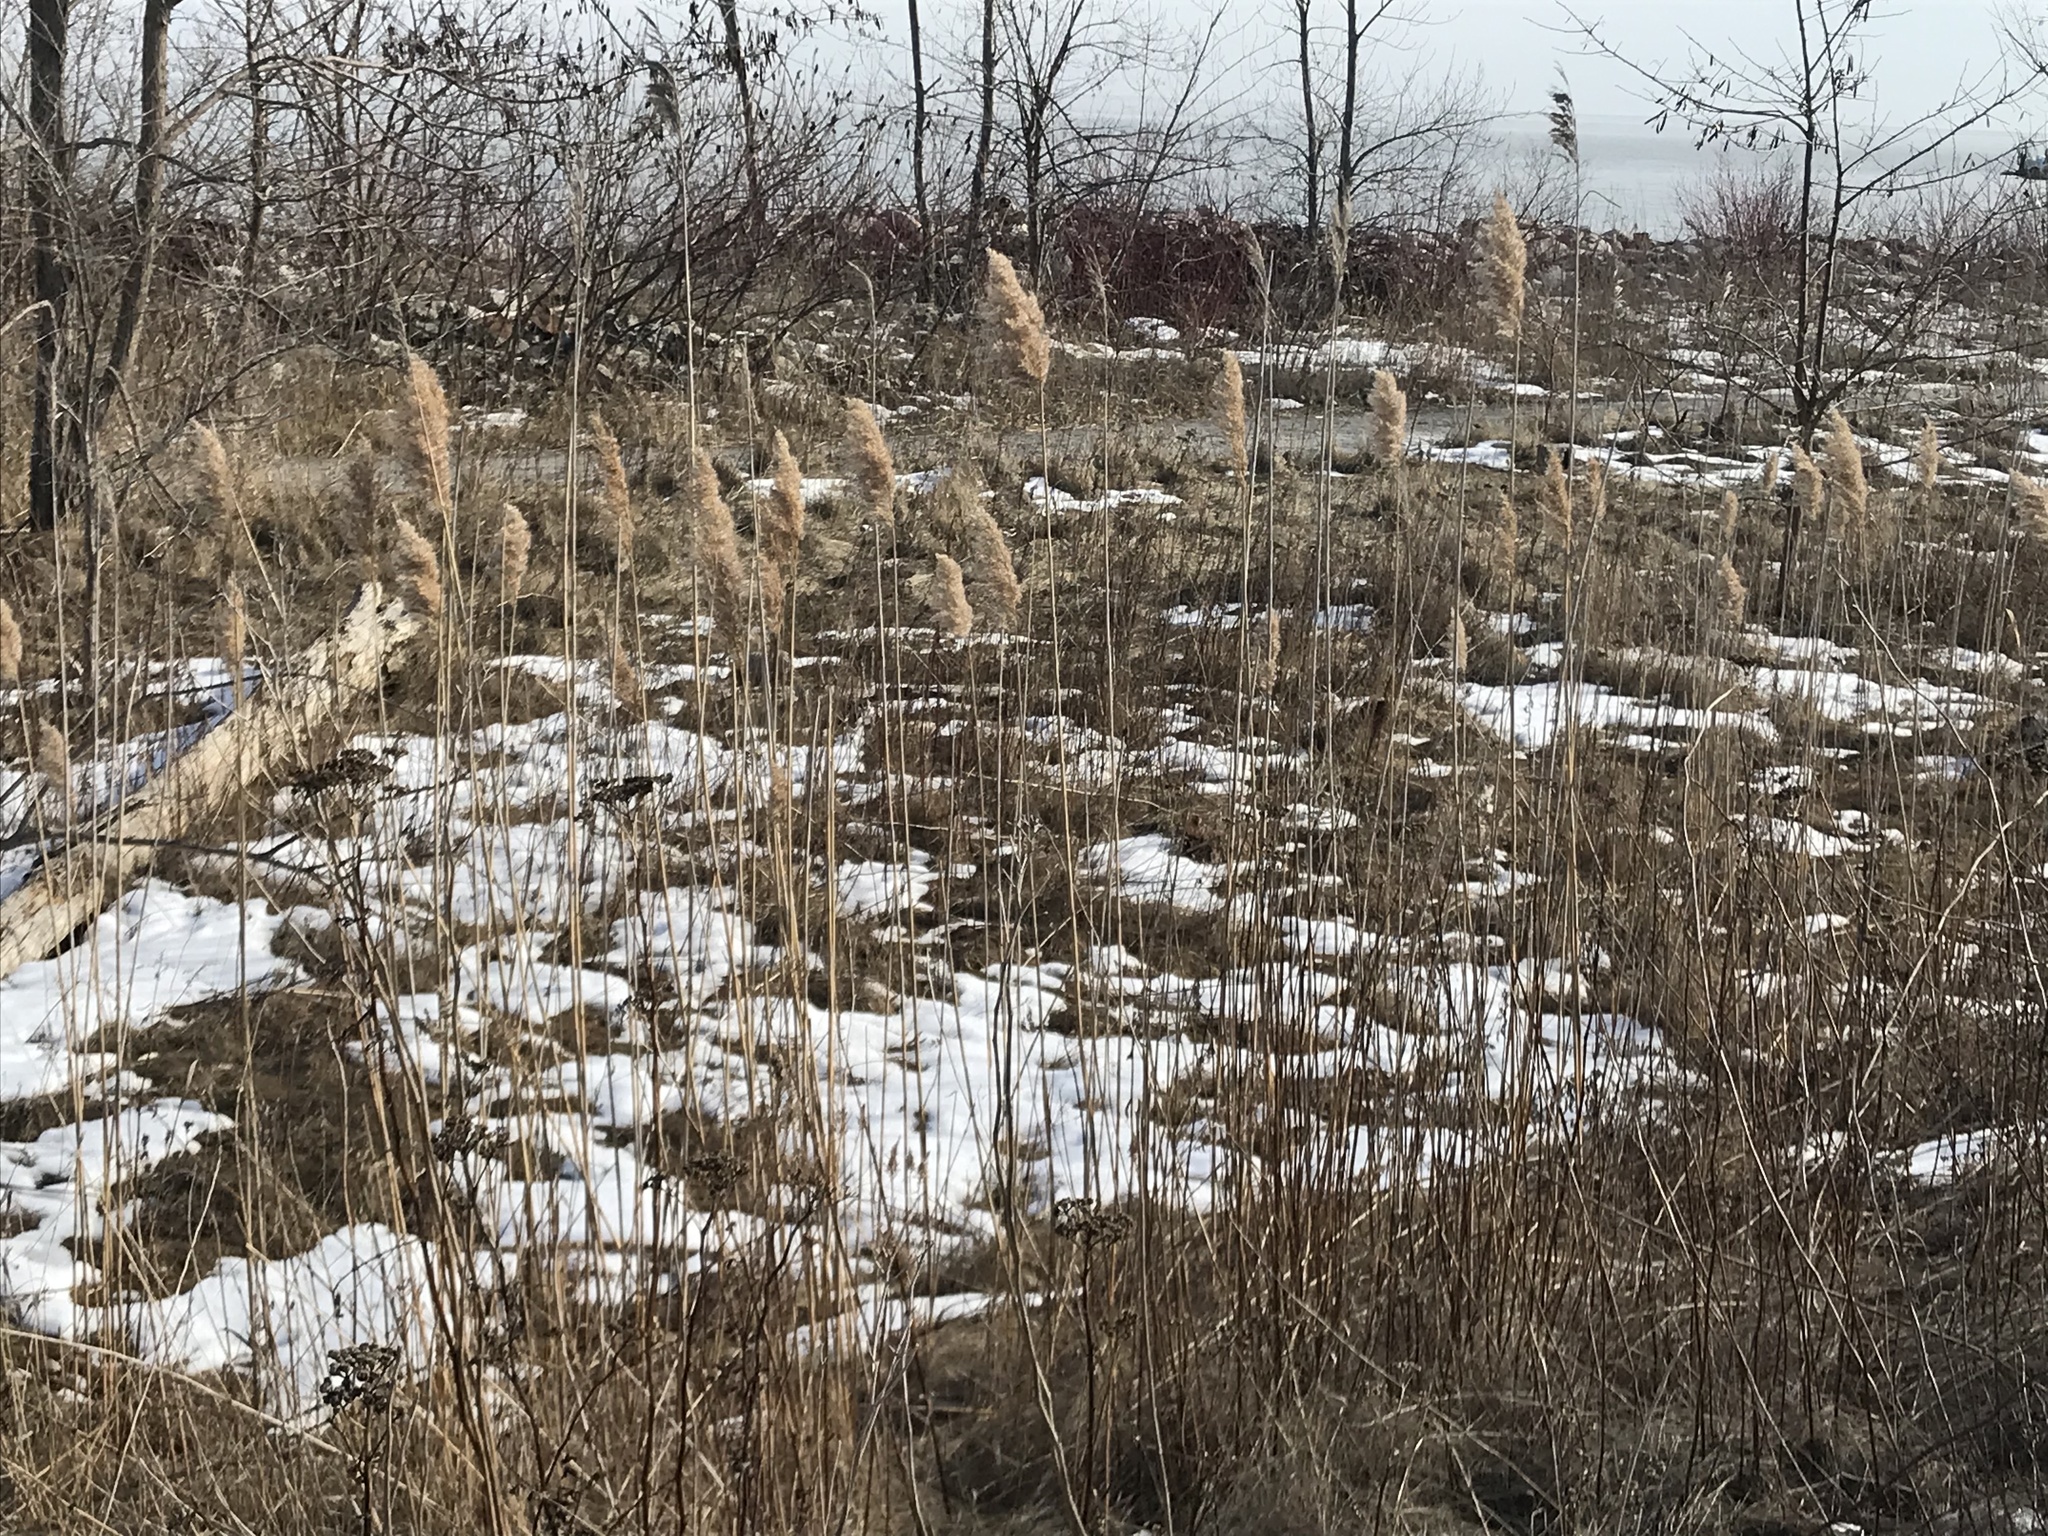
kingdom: Plantae
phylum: Tracheophyta
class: Liliopsida
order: Poales
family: Poaceae
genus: Phragmites
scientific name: Phragmites australis
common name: Common reed
